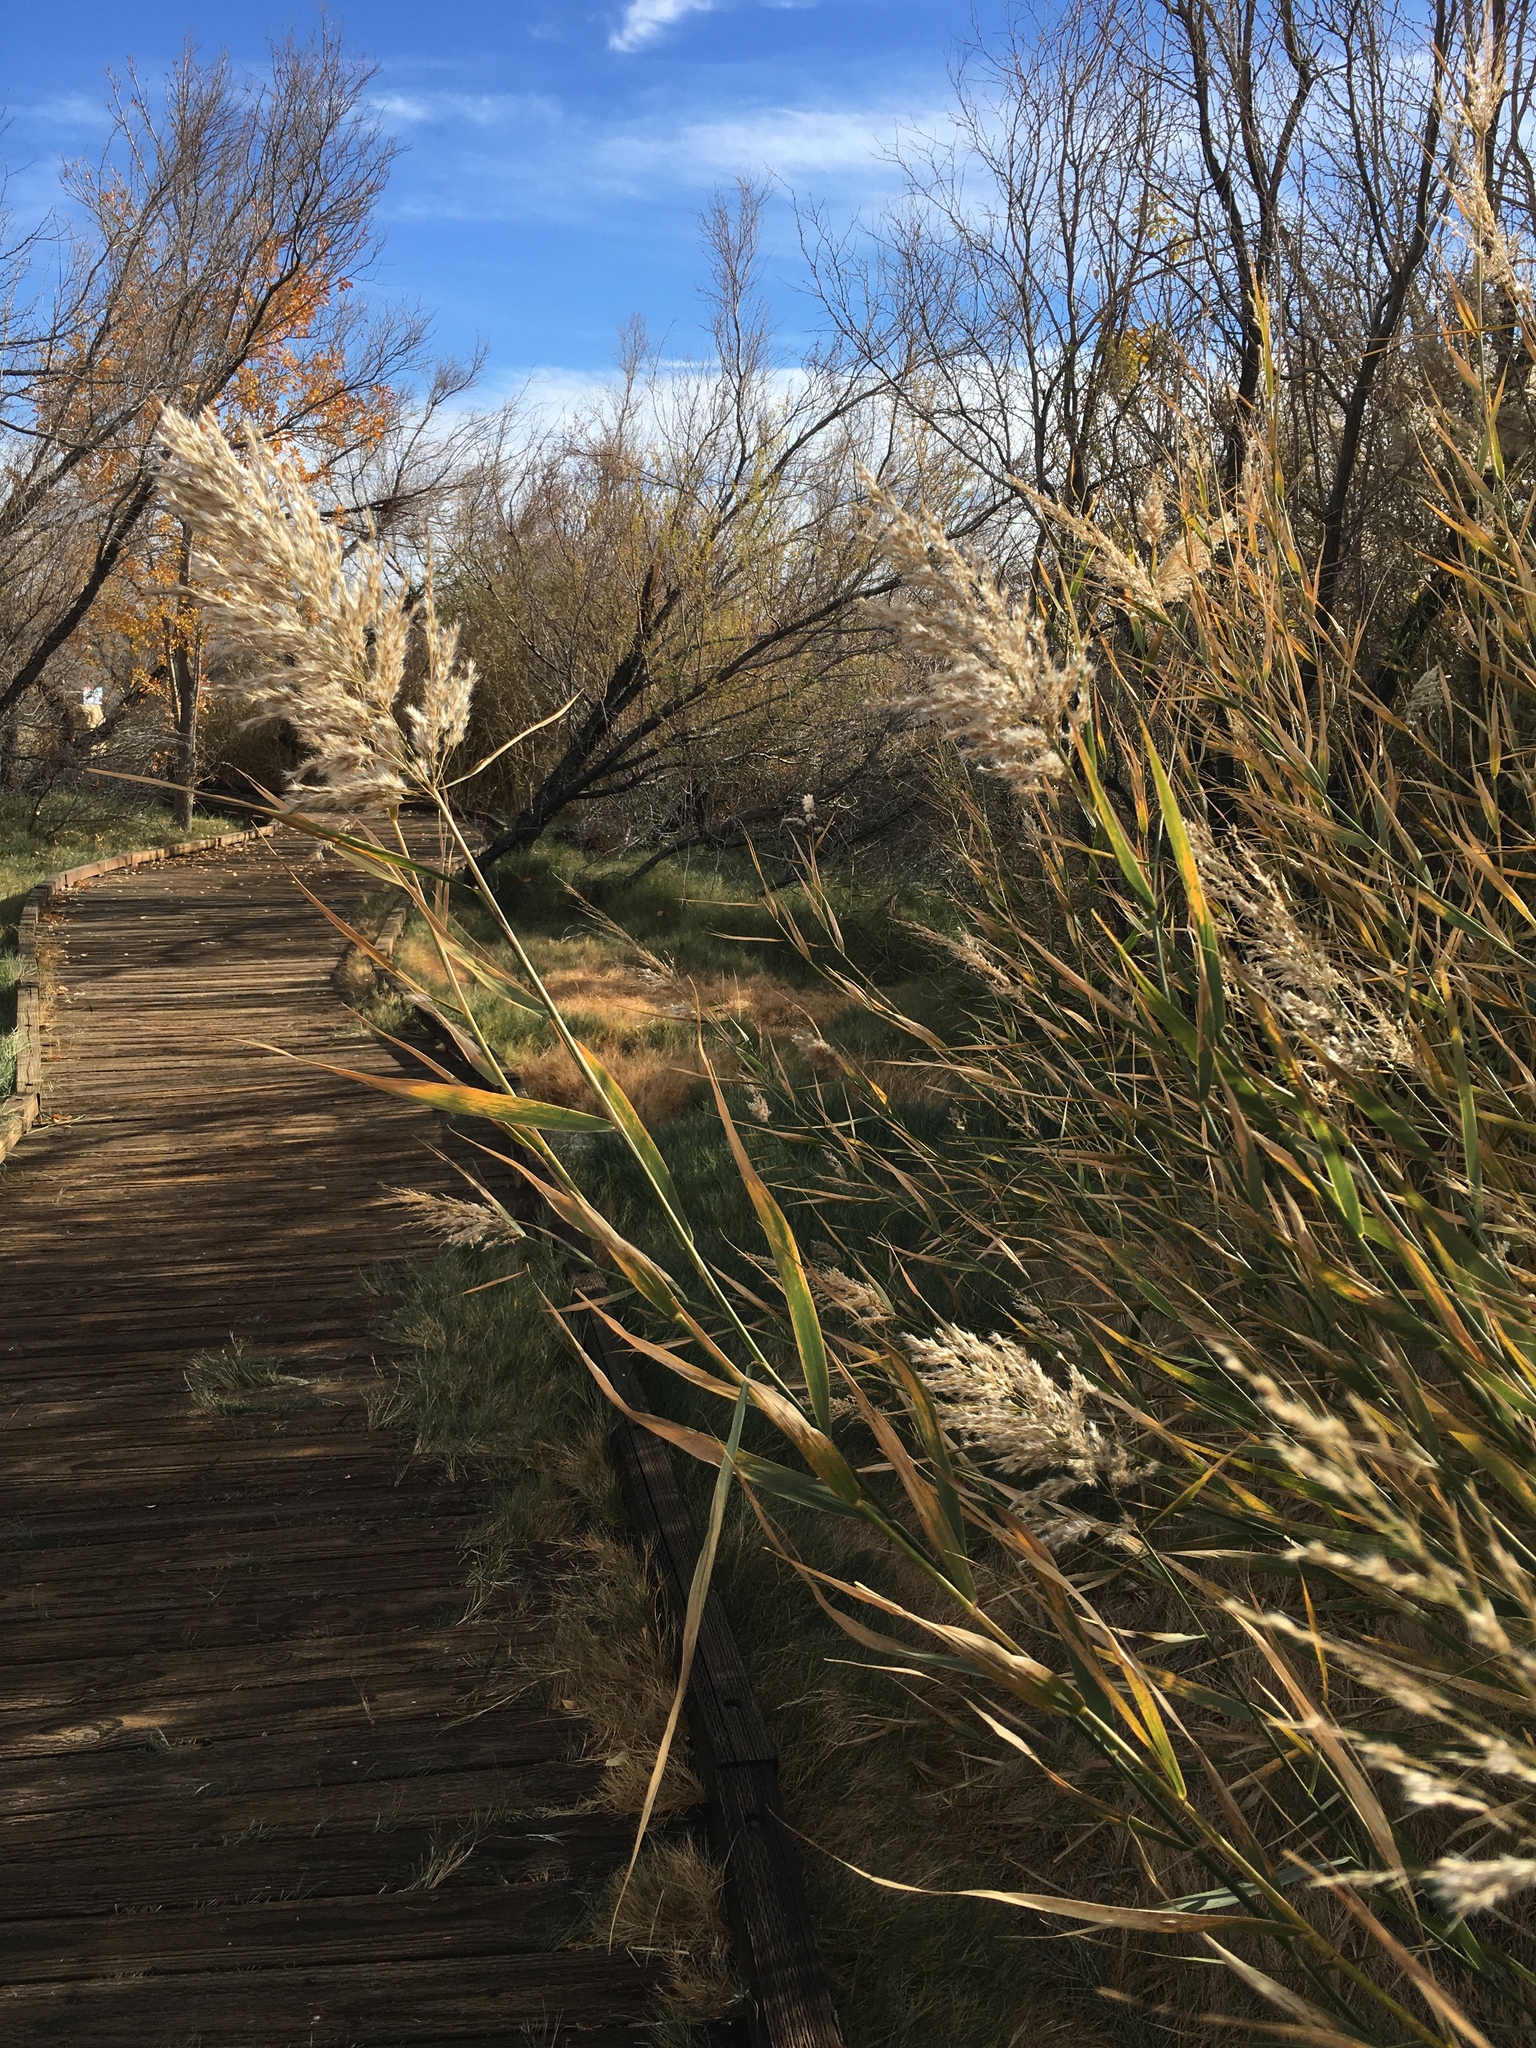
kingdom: Plantae
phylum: Tracheophyta
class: Liliopsida
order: Poales
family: Poaceae
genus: Phragmites
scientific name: Phragmites australis
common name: Common reed
